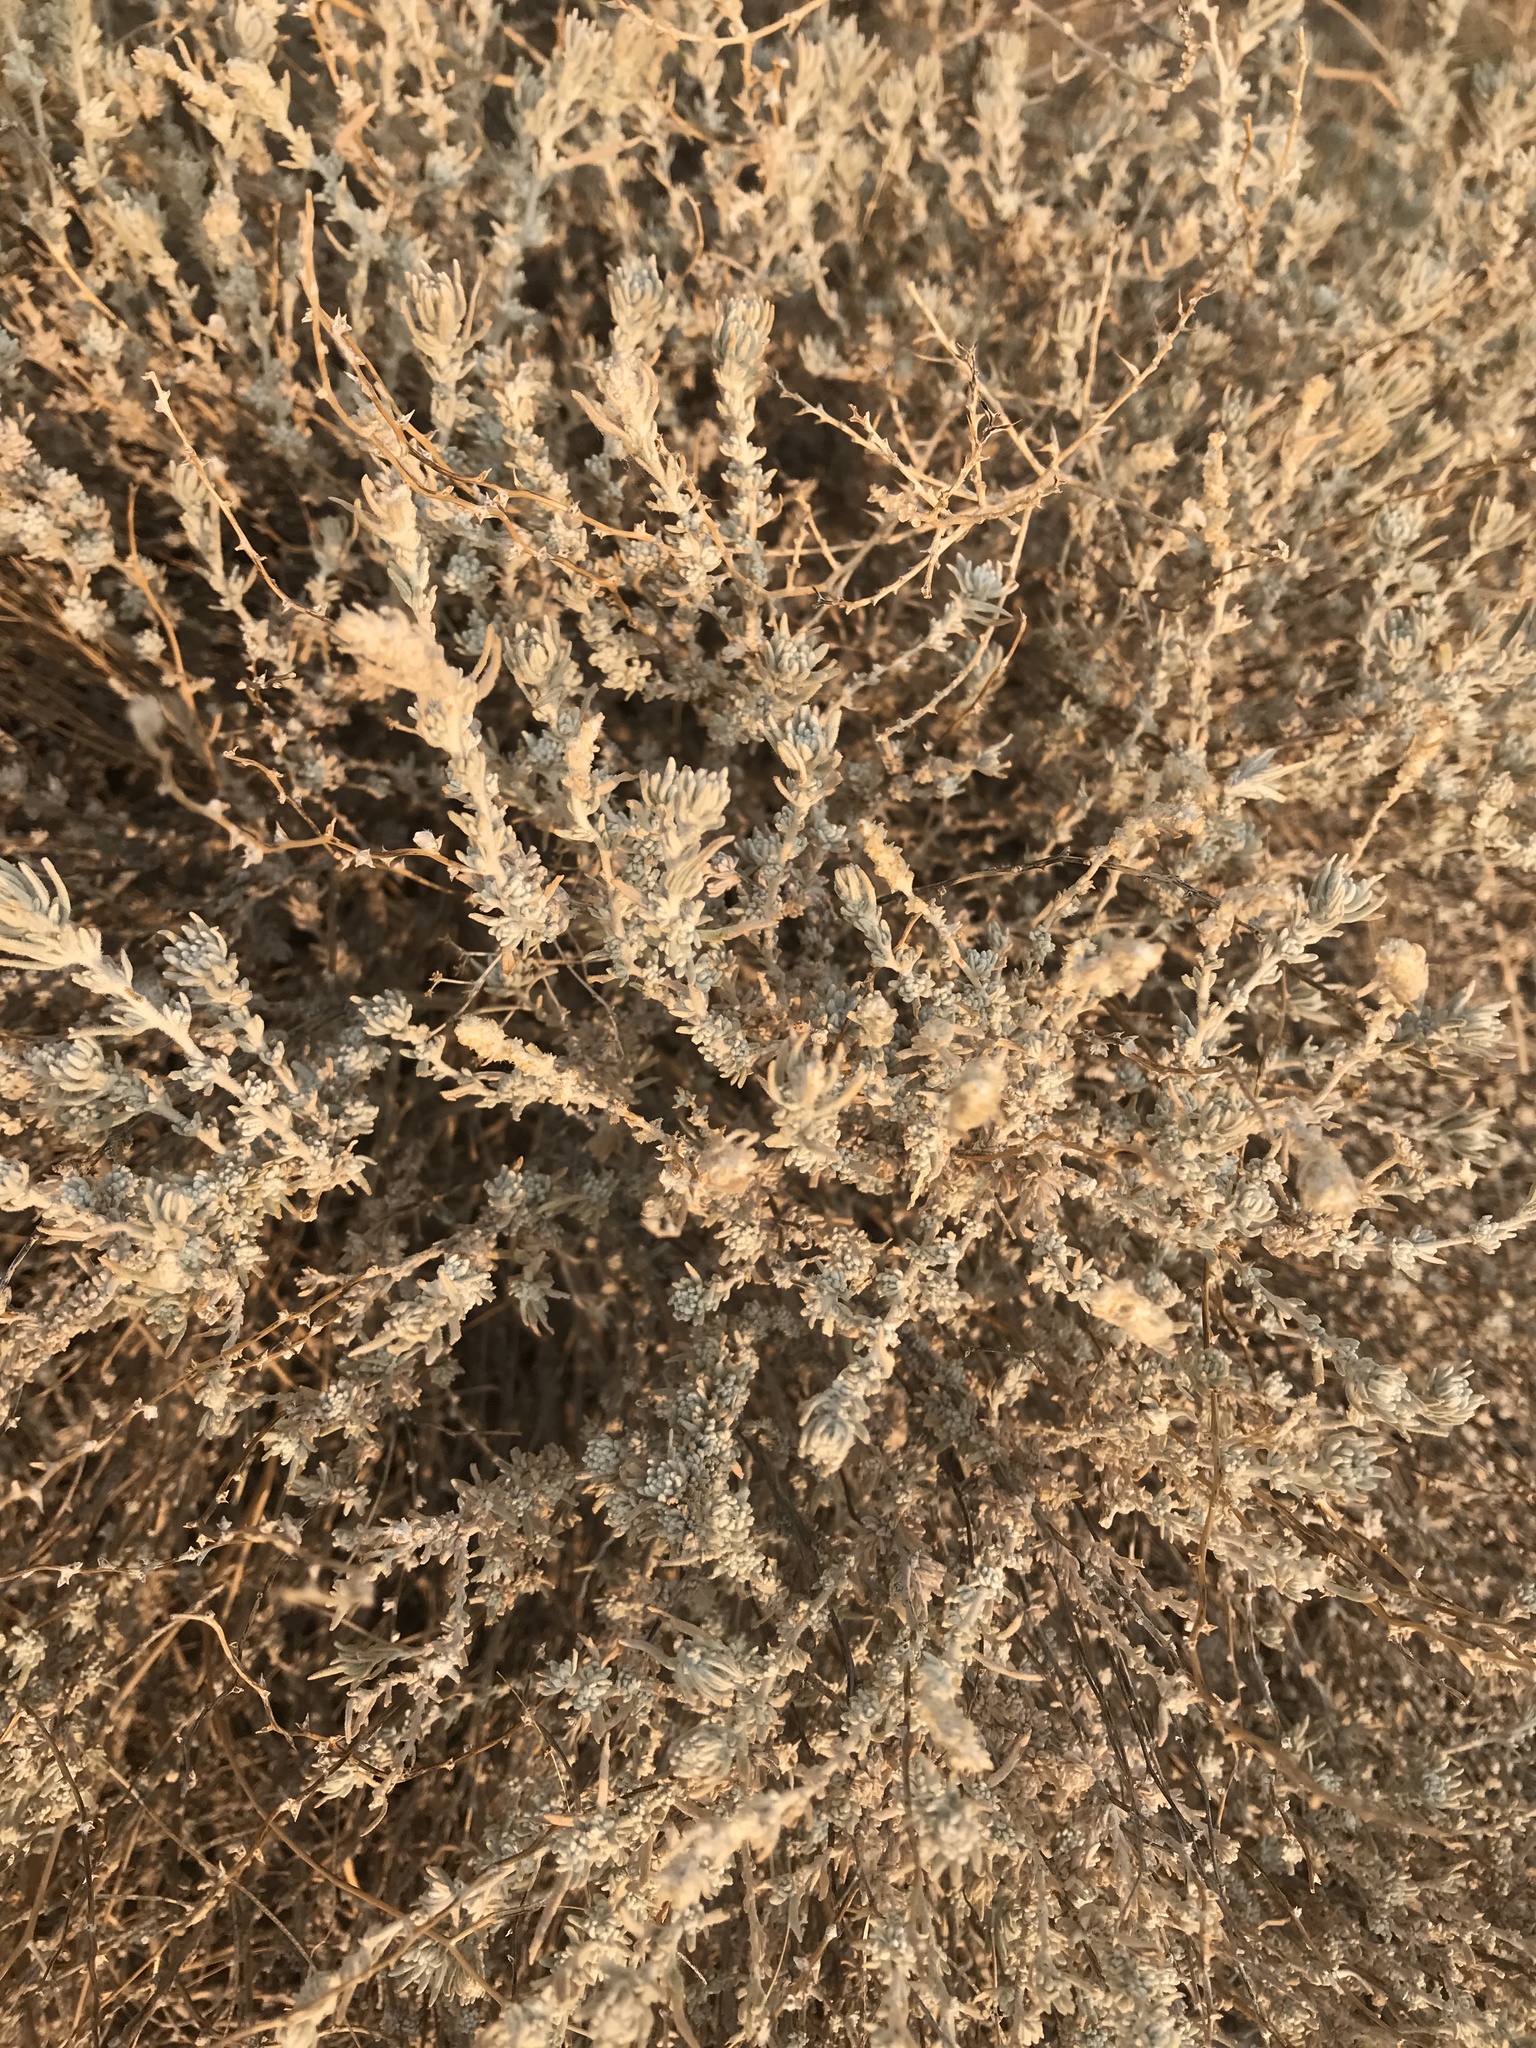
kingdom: Plantae
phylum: Tracheophyta
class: Magnoliopsida
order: Caryophyllales
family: Amaranthaceae
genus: Krascheninnikovia
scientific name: Krascheninnikovia lanata
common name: Winterfat
